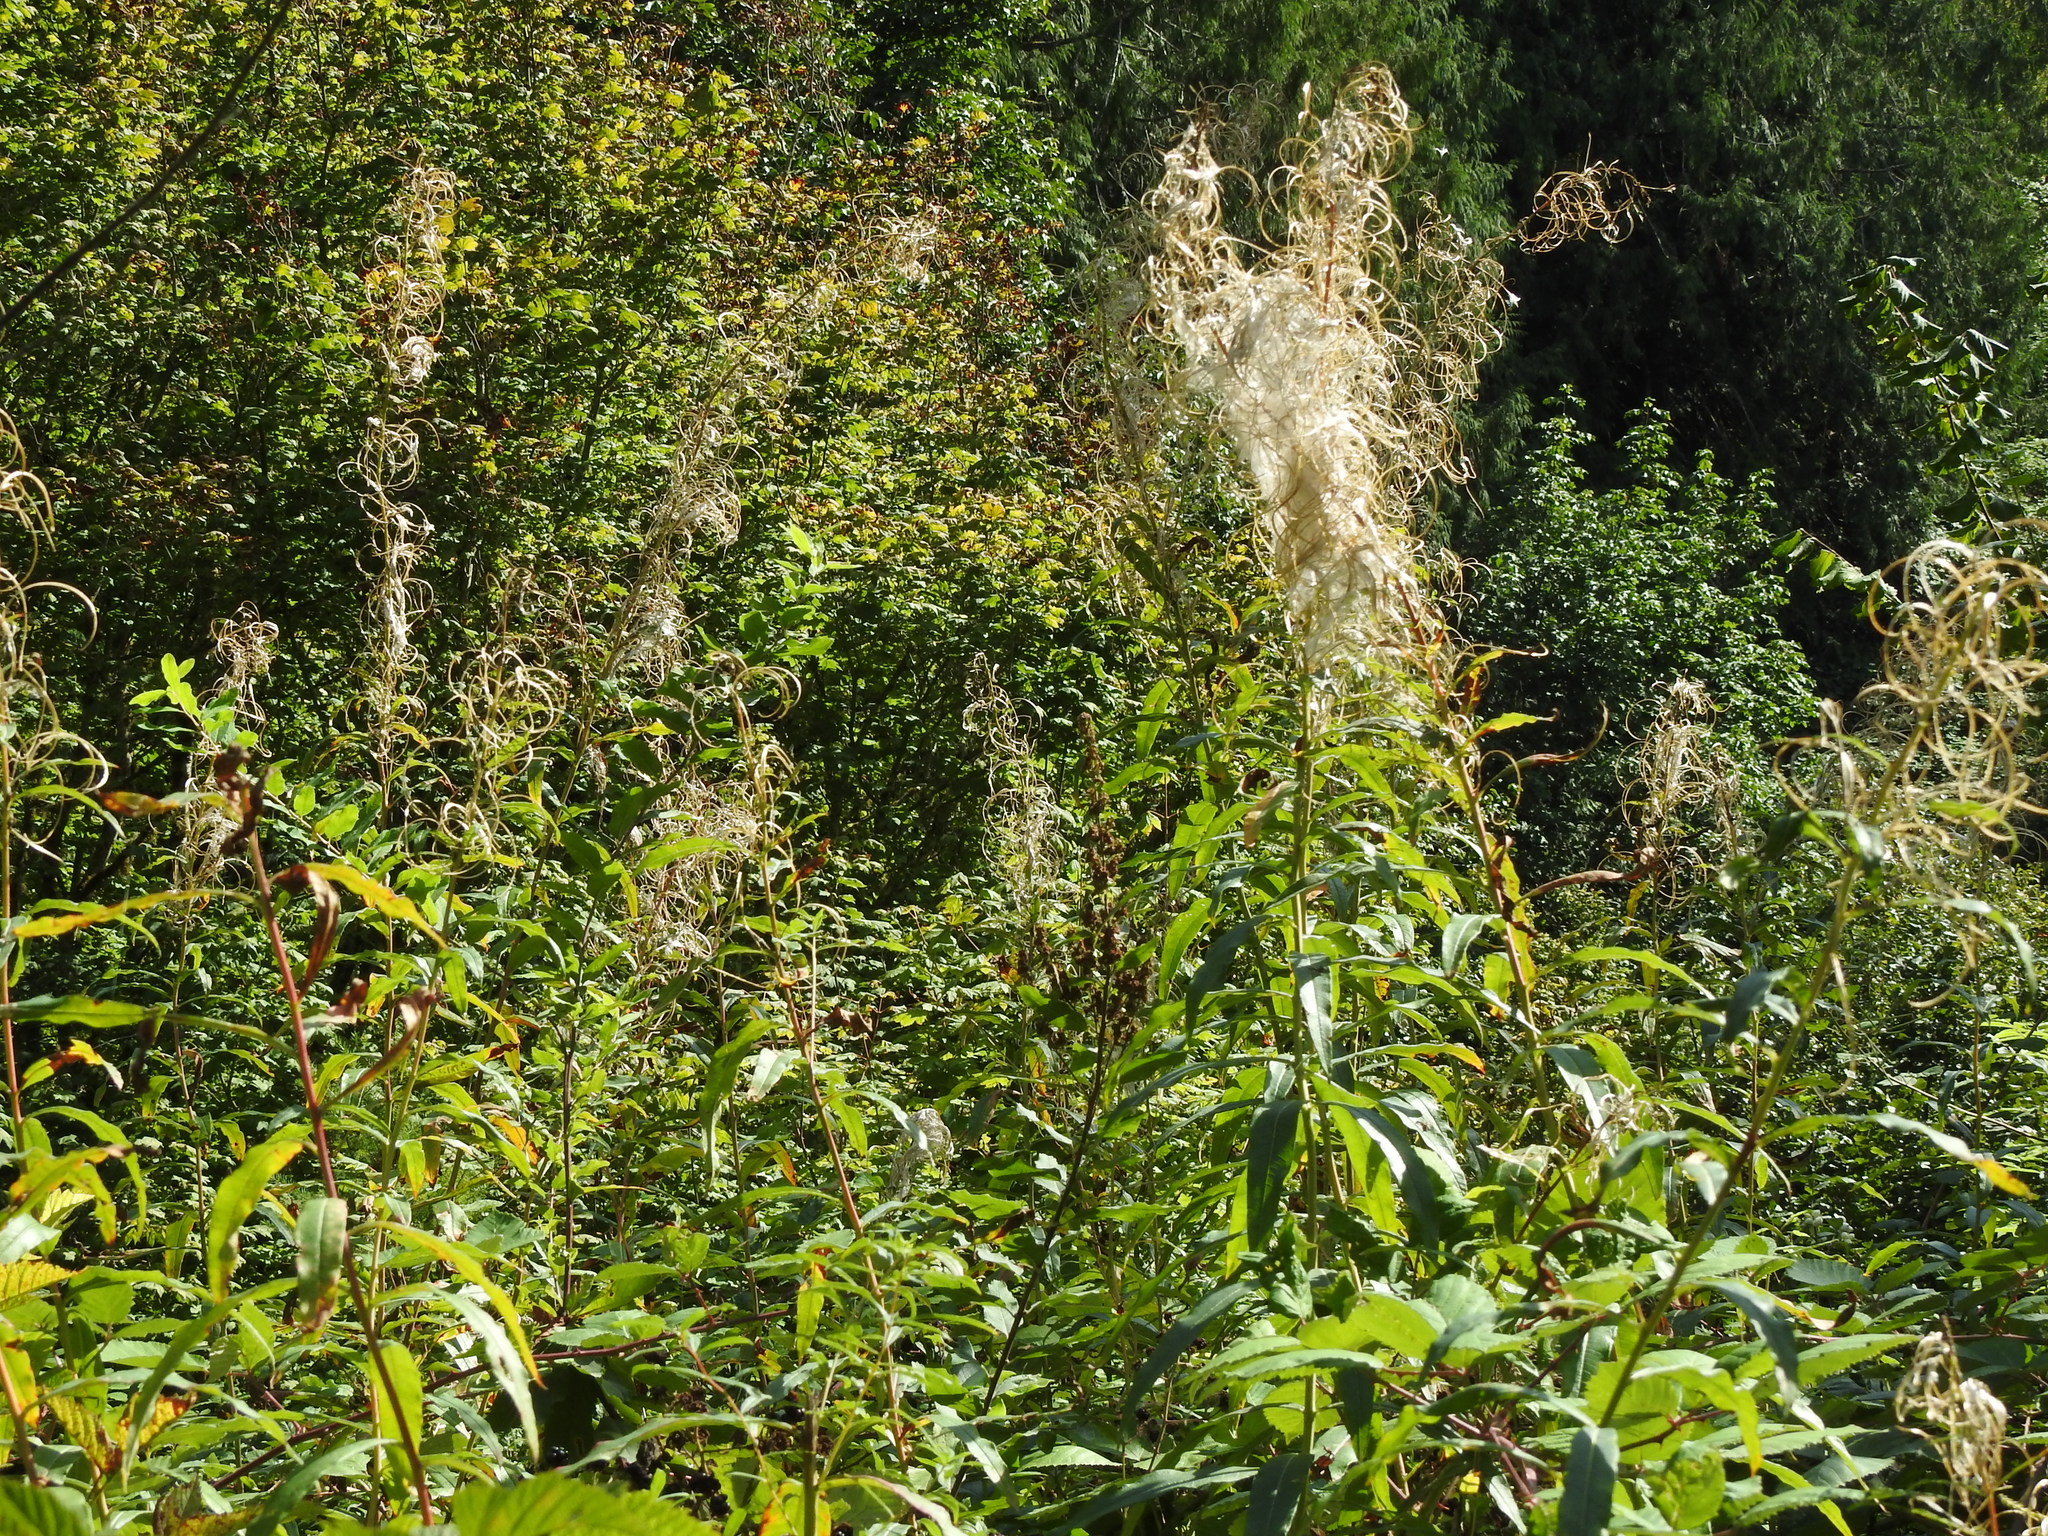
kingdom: Plantae
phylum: Tracheophyta
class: Magnoliopsida
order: Myrtales
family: Onagraceae
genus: Chamaenerion
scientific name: Chamaenerion angustifolium
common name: Fireweed
